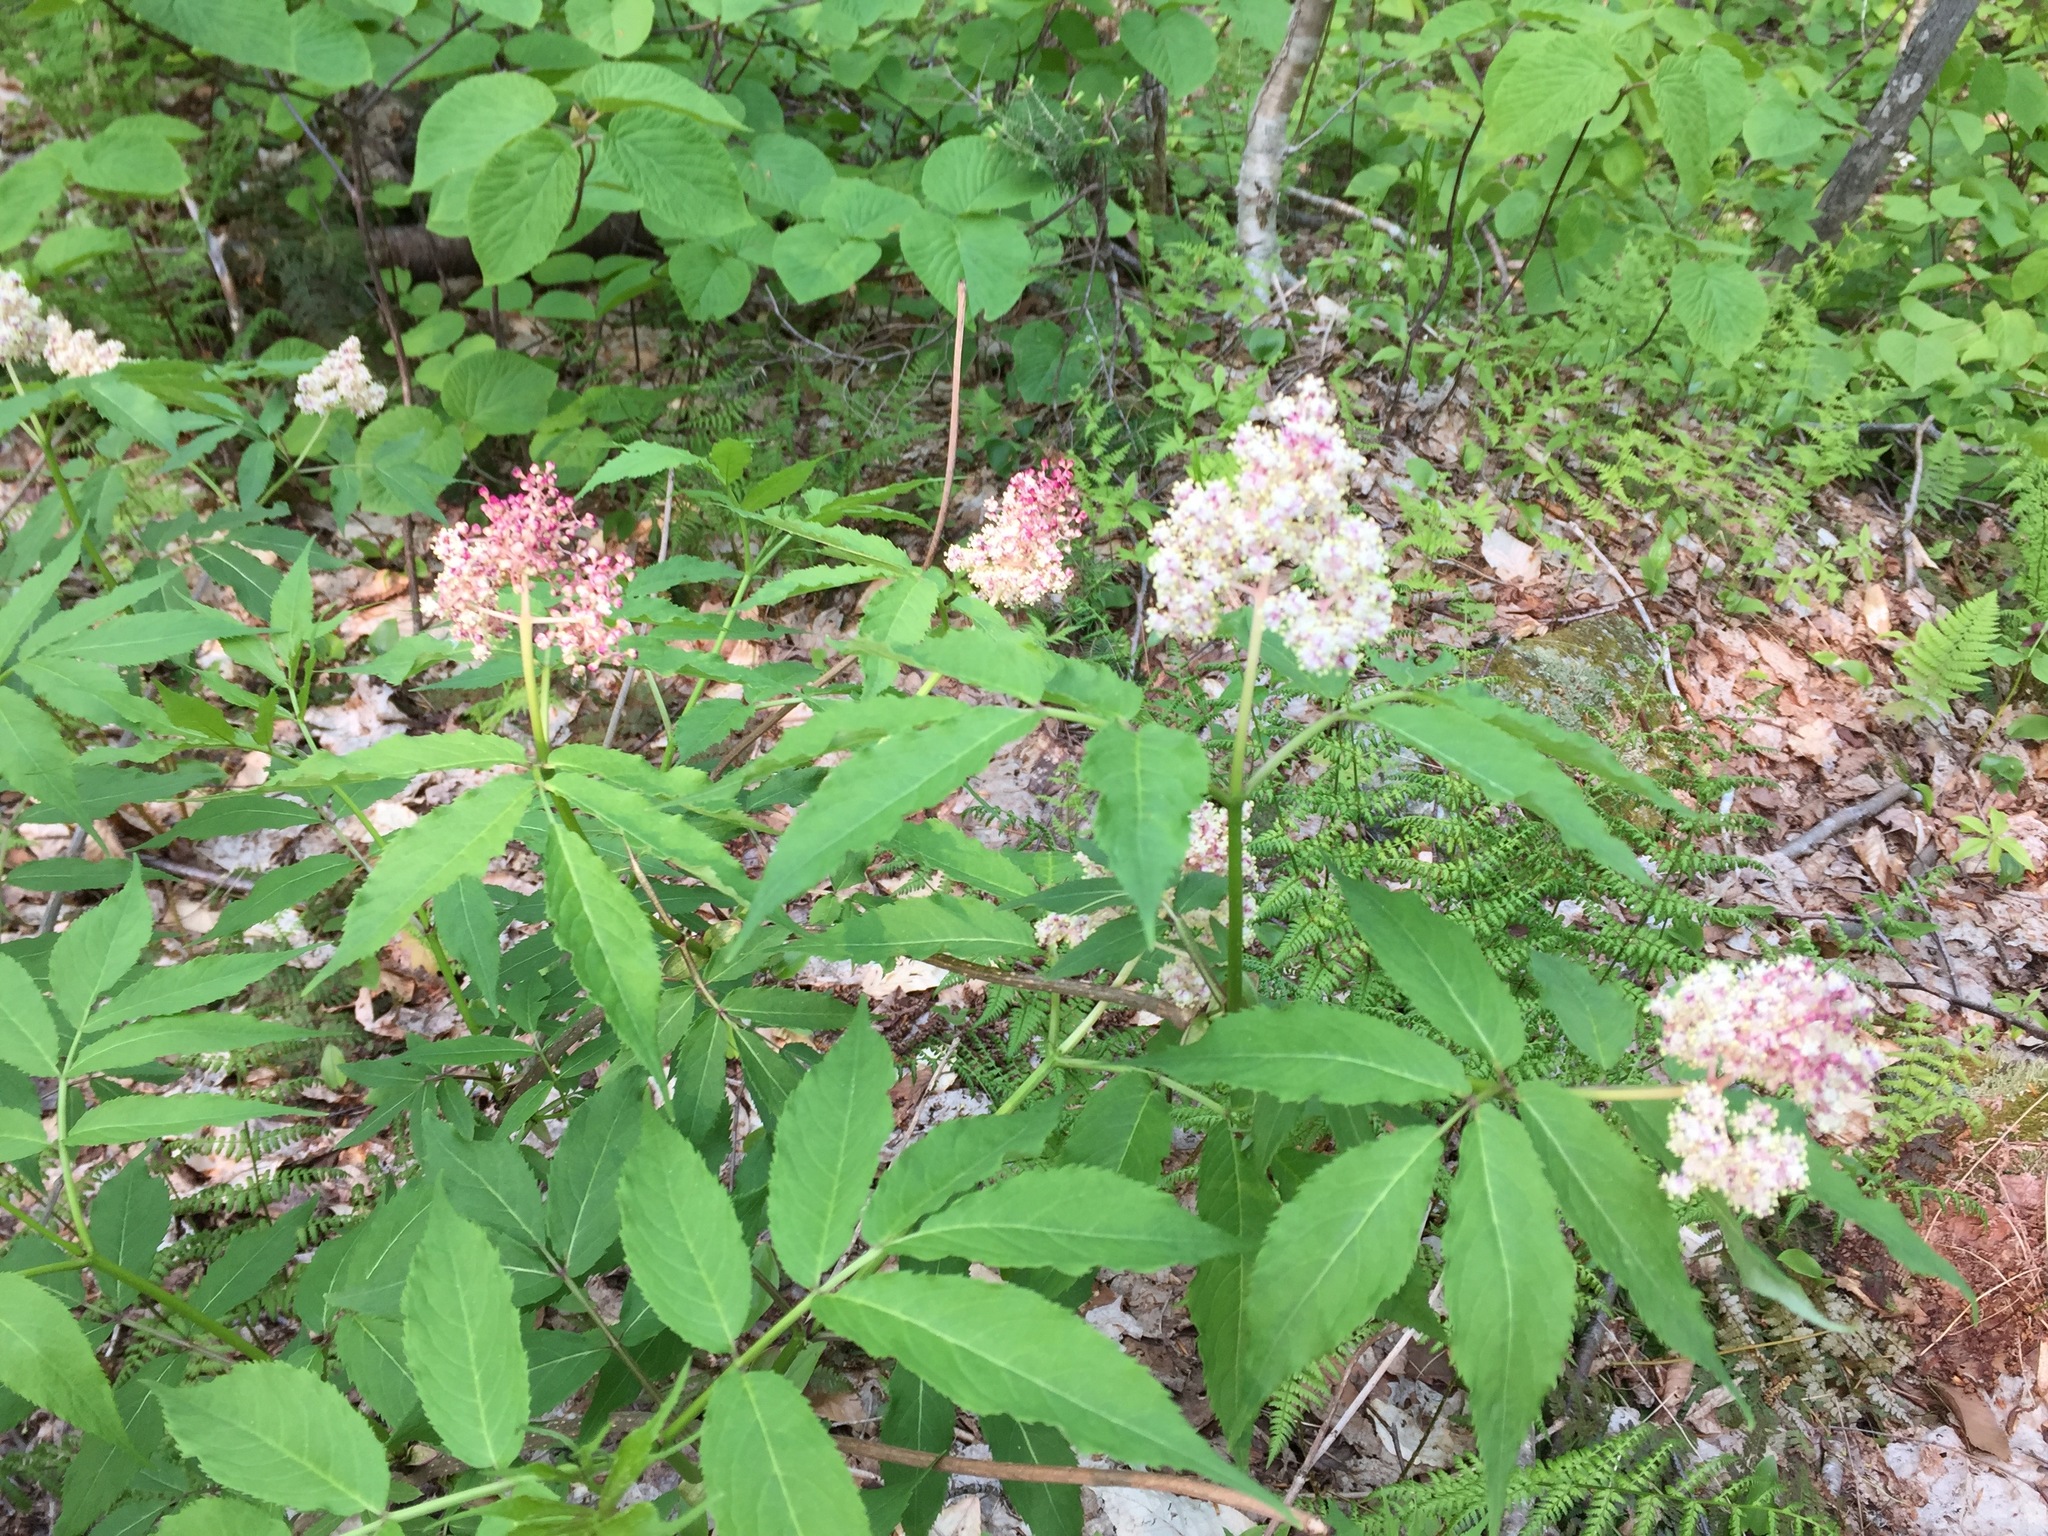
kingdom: Plantae
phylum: Tracheophyta
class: Magnoliopsida
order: Dipsacales
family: Viburnaceae
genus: Sambucus
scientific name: Sambucus racemosa
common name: Red-berried elder
